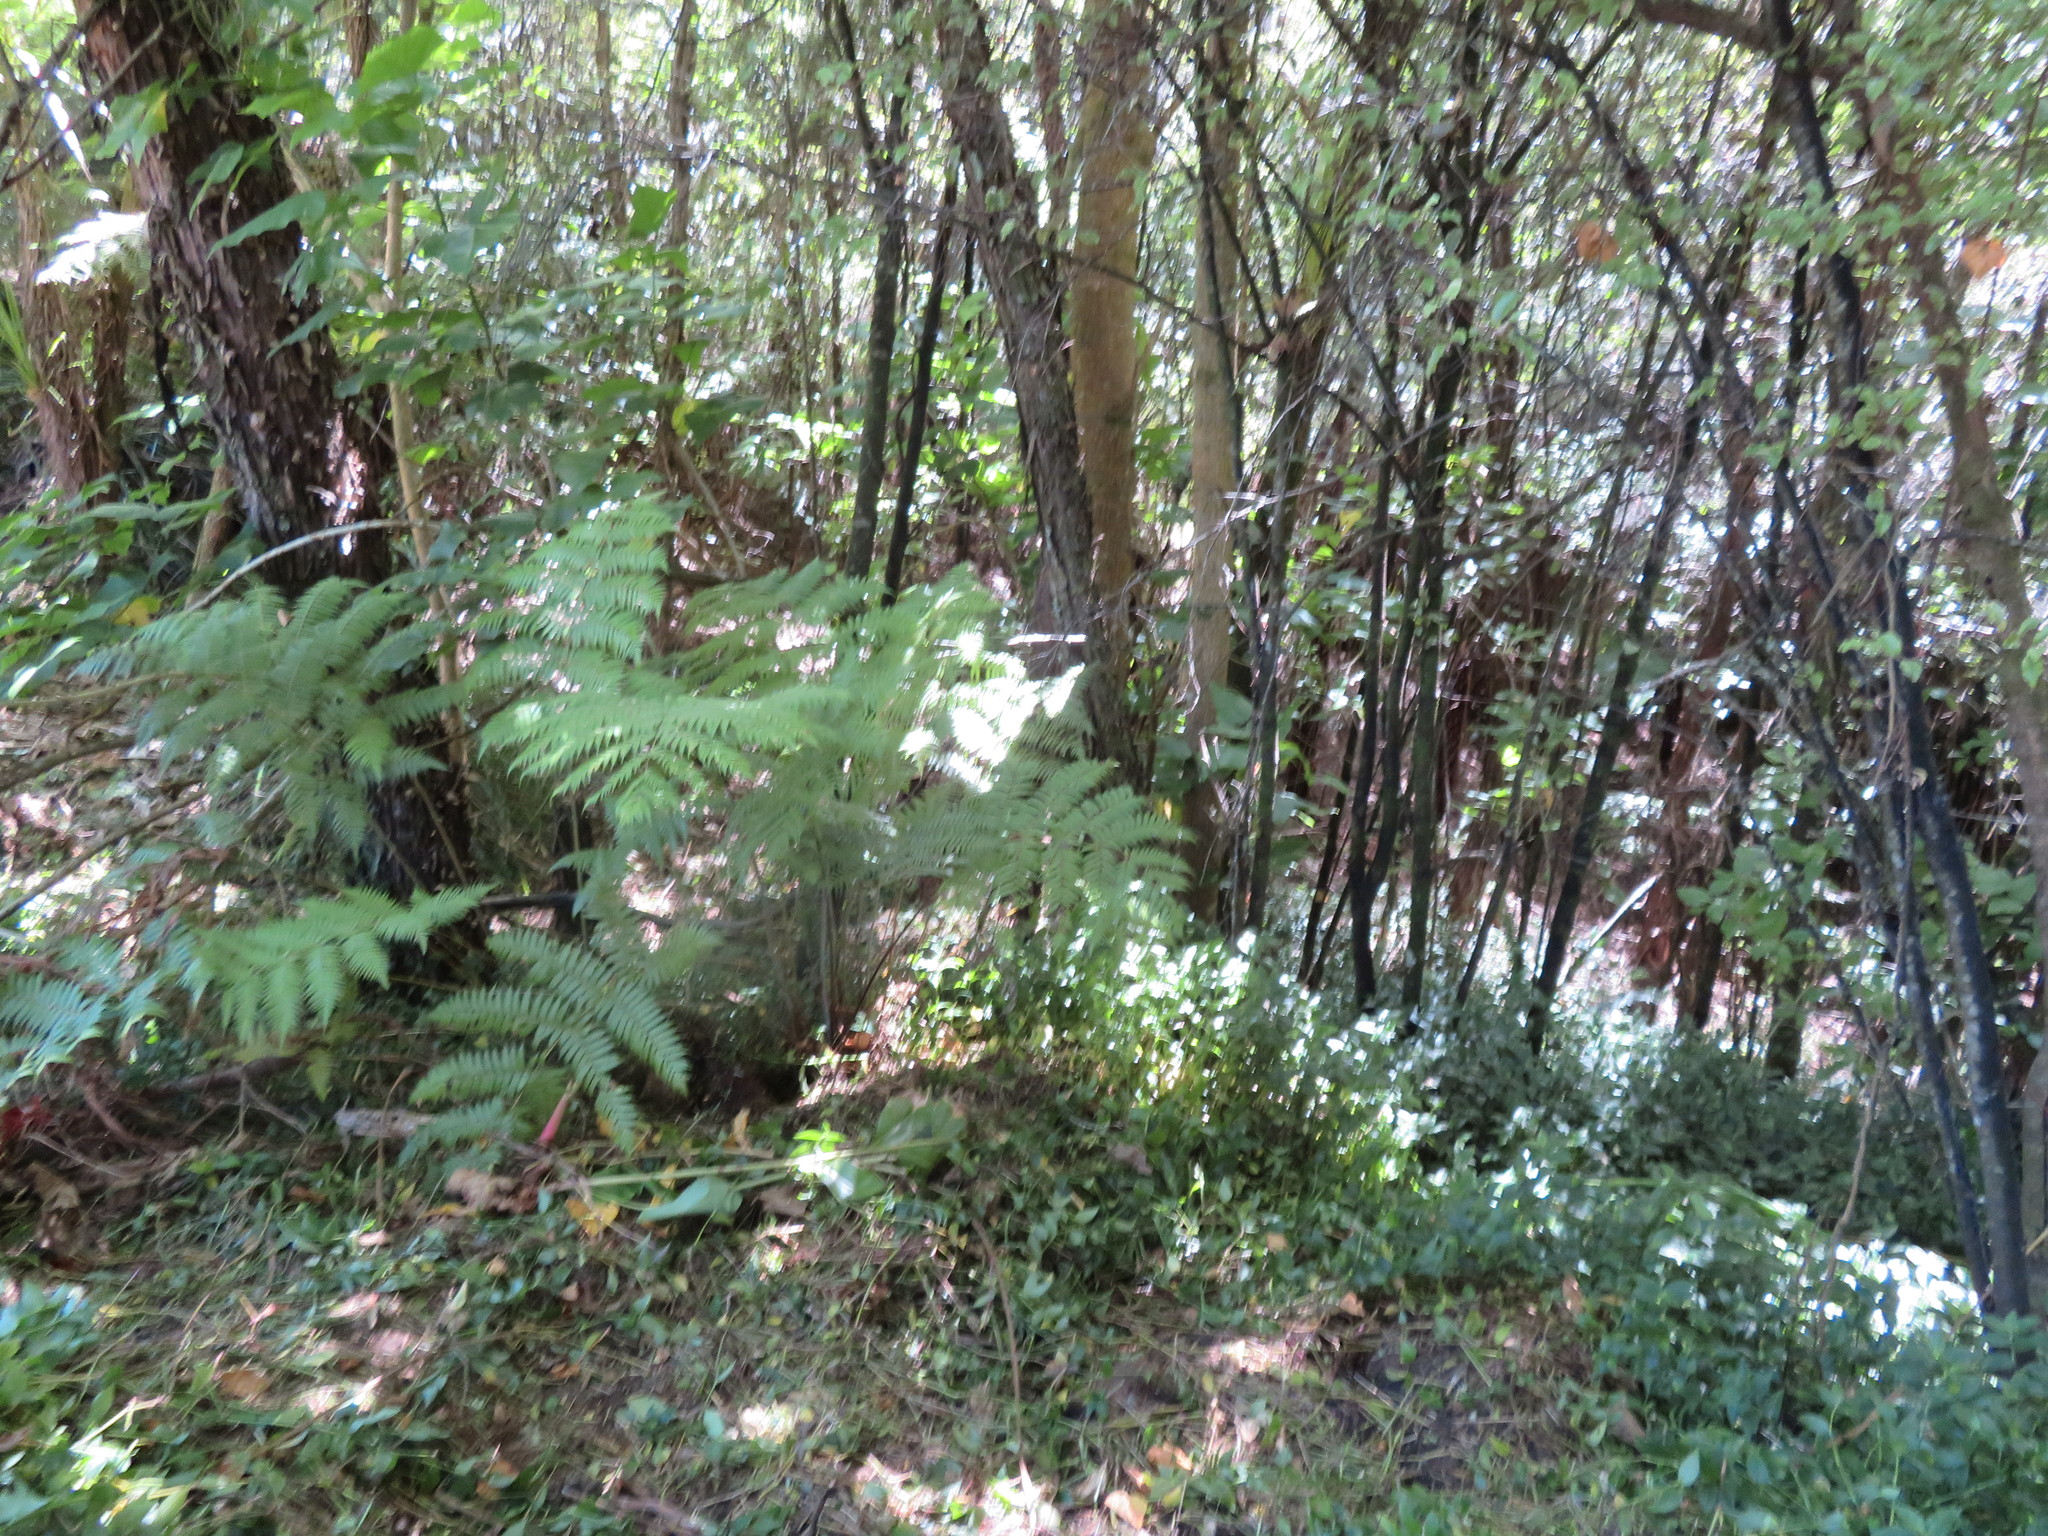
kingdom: Plantae
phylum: Tracheophyta
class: Liliopsida
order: Zingiberales
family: Zingiberaceae
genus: Hedychium
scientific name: Hedychium gardnerianum
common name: Himalayan ginger
